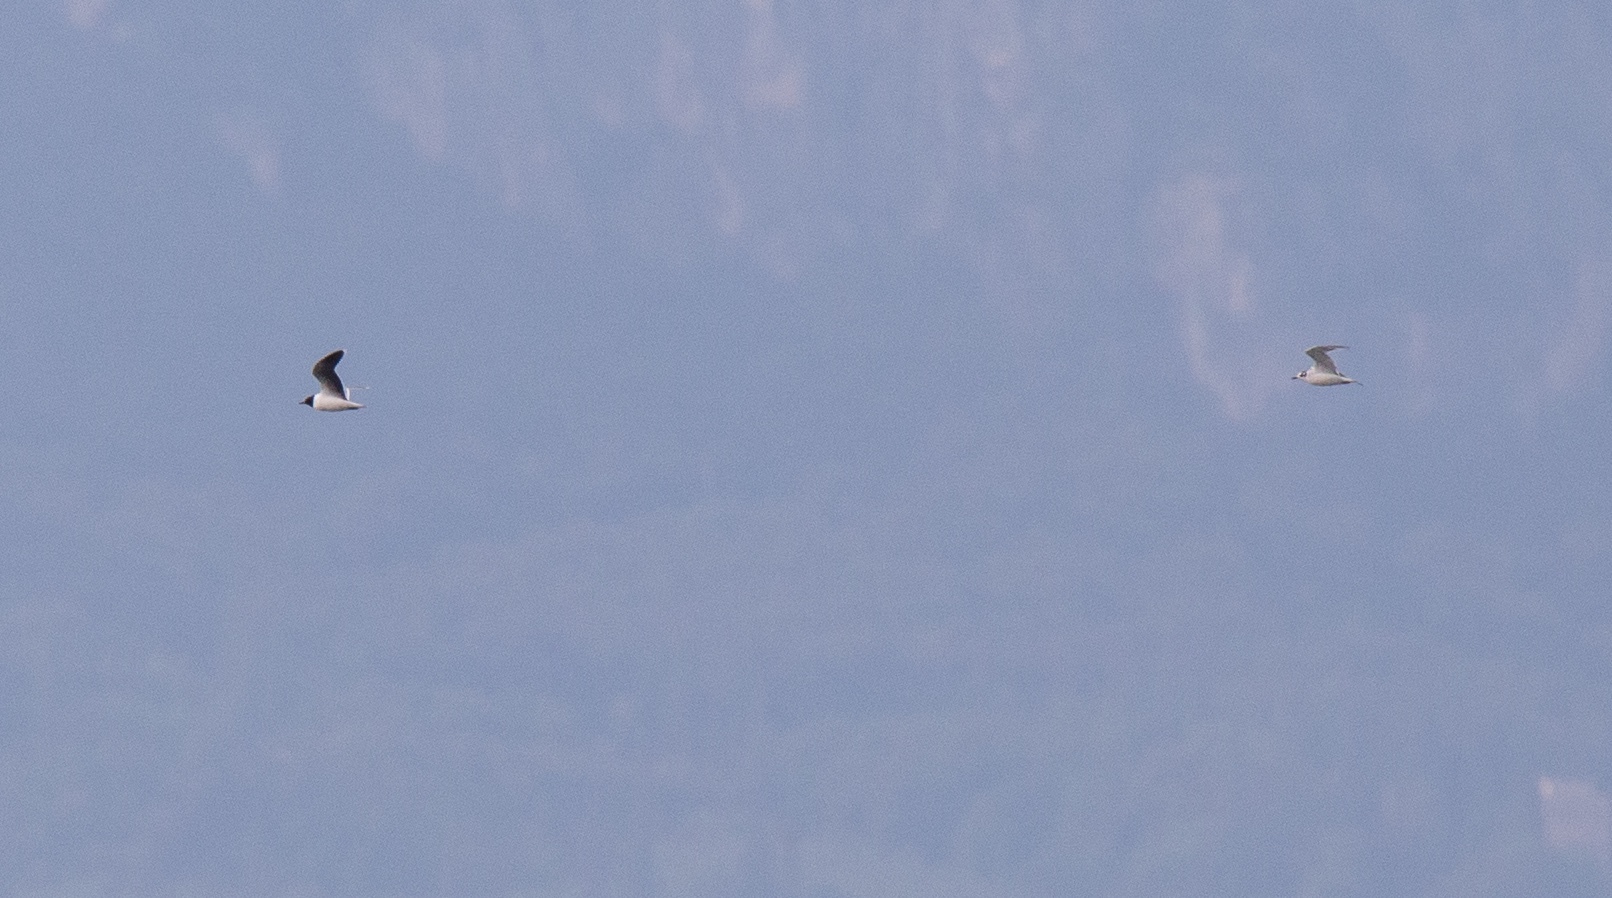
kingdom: Animalia
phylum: Chordata
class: Aves
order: Charadriiformes
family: Laridae
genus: Hydrocoloeus
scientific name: Hydrocoloeus minutus
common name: Little gull
